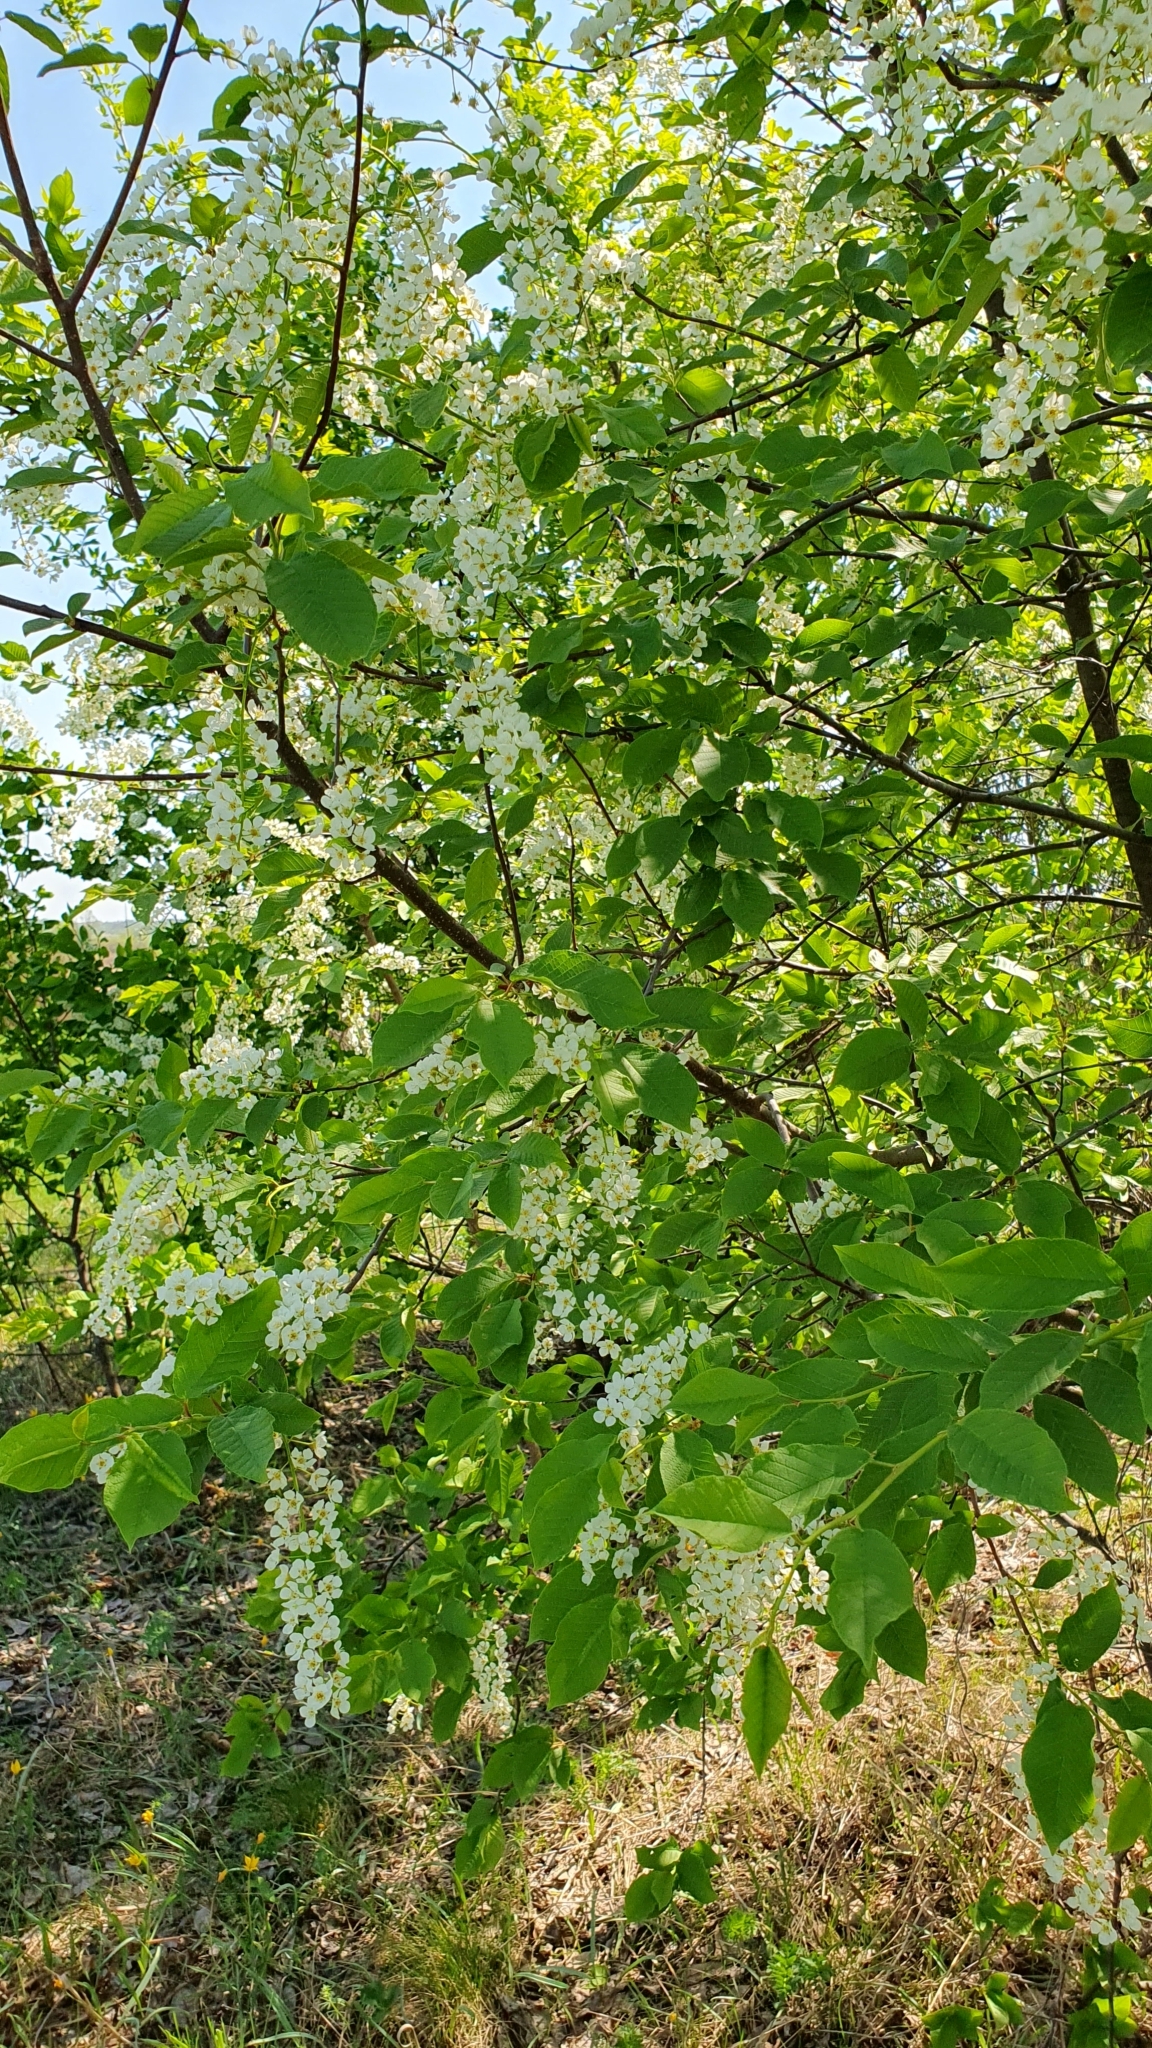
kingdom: Plantae
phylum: Tracheophyta
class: Magnoliopsida
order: Rosales
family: Rosaceae
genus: Prunus
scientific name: Prunus padus
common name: Bird cherry
